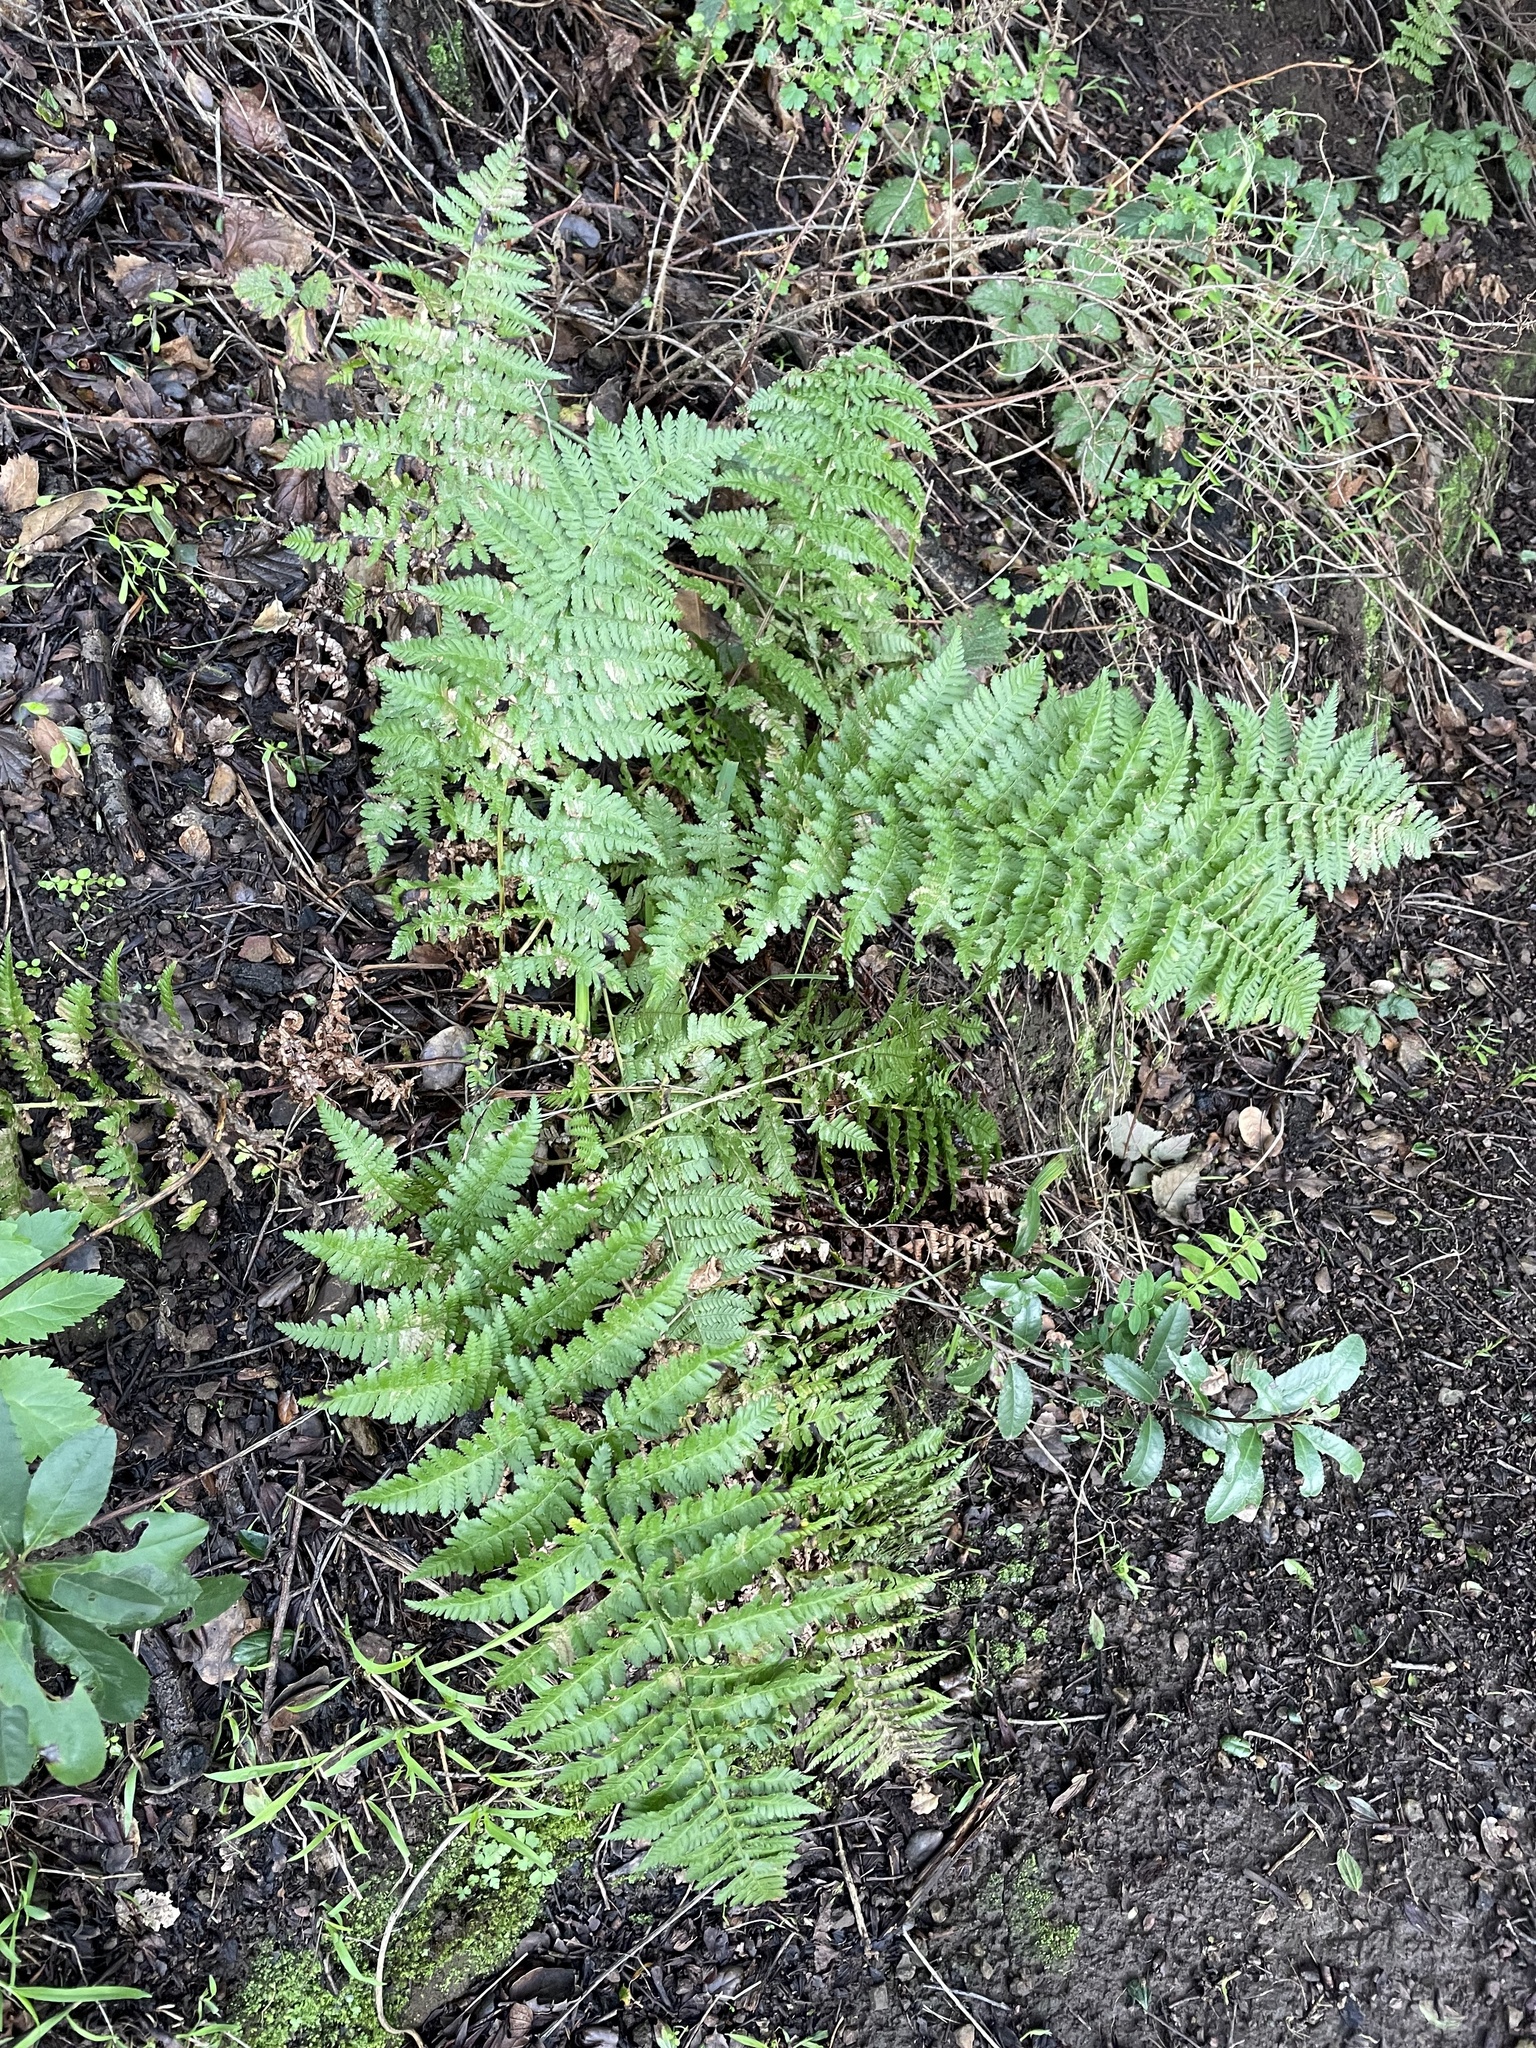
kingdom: Plantae
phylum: Tracheophyta
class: Polypodiopsida
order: Polypodiales
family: Dryopteridaceae
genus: Dryopteris
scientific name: Dryopteris arguta
